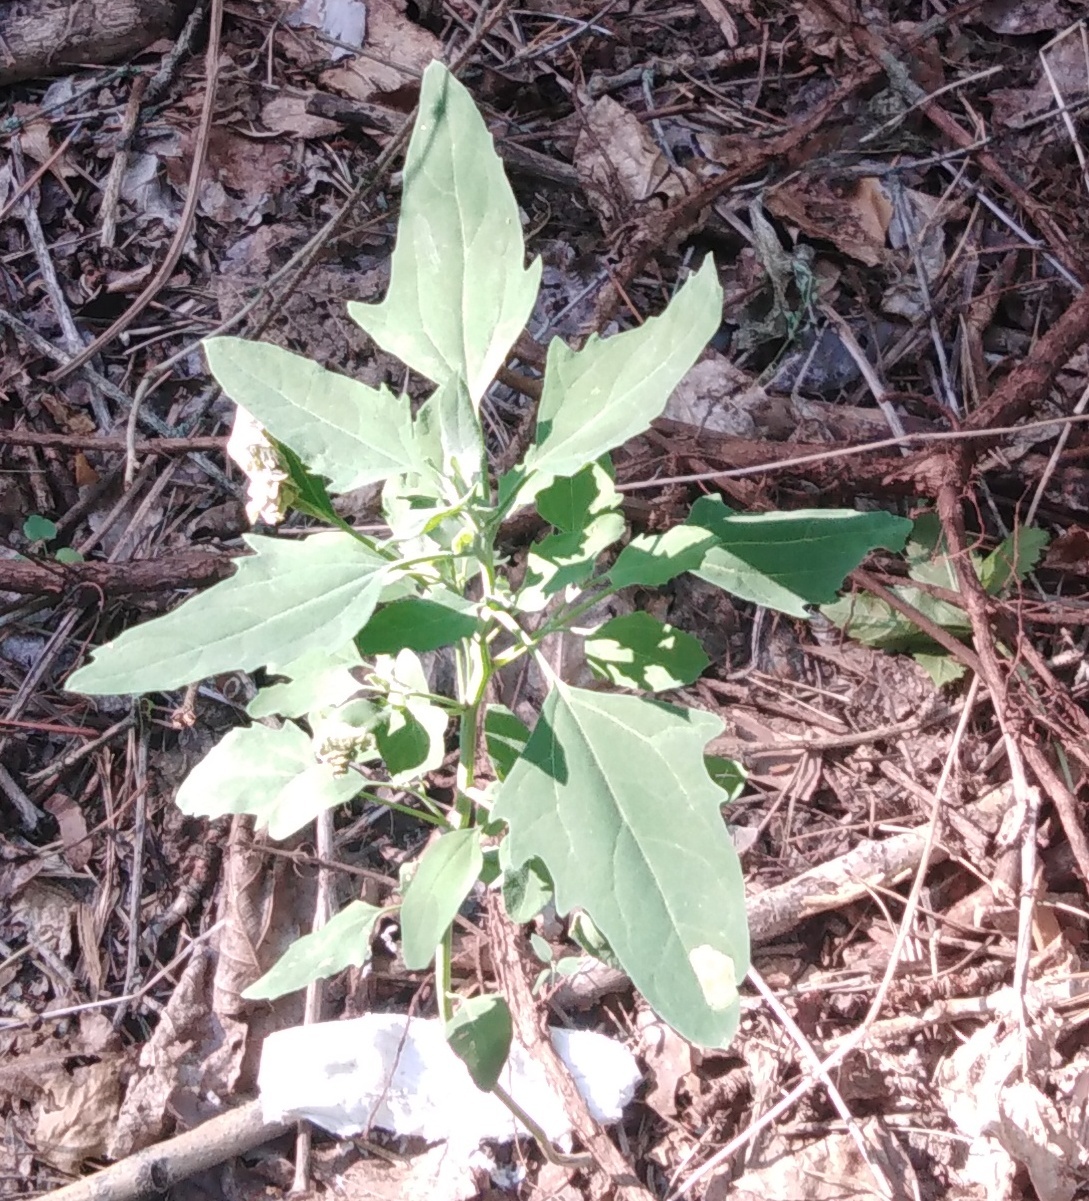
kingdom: Plantae
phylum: Tracheophyta
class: Magnoliopsida
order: Caryophyllales
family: Amaranthaceae
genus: Chenopodium
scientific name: Chenopodium album
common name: Fat-hen
